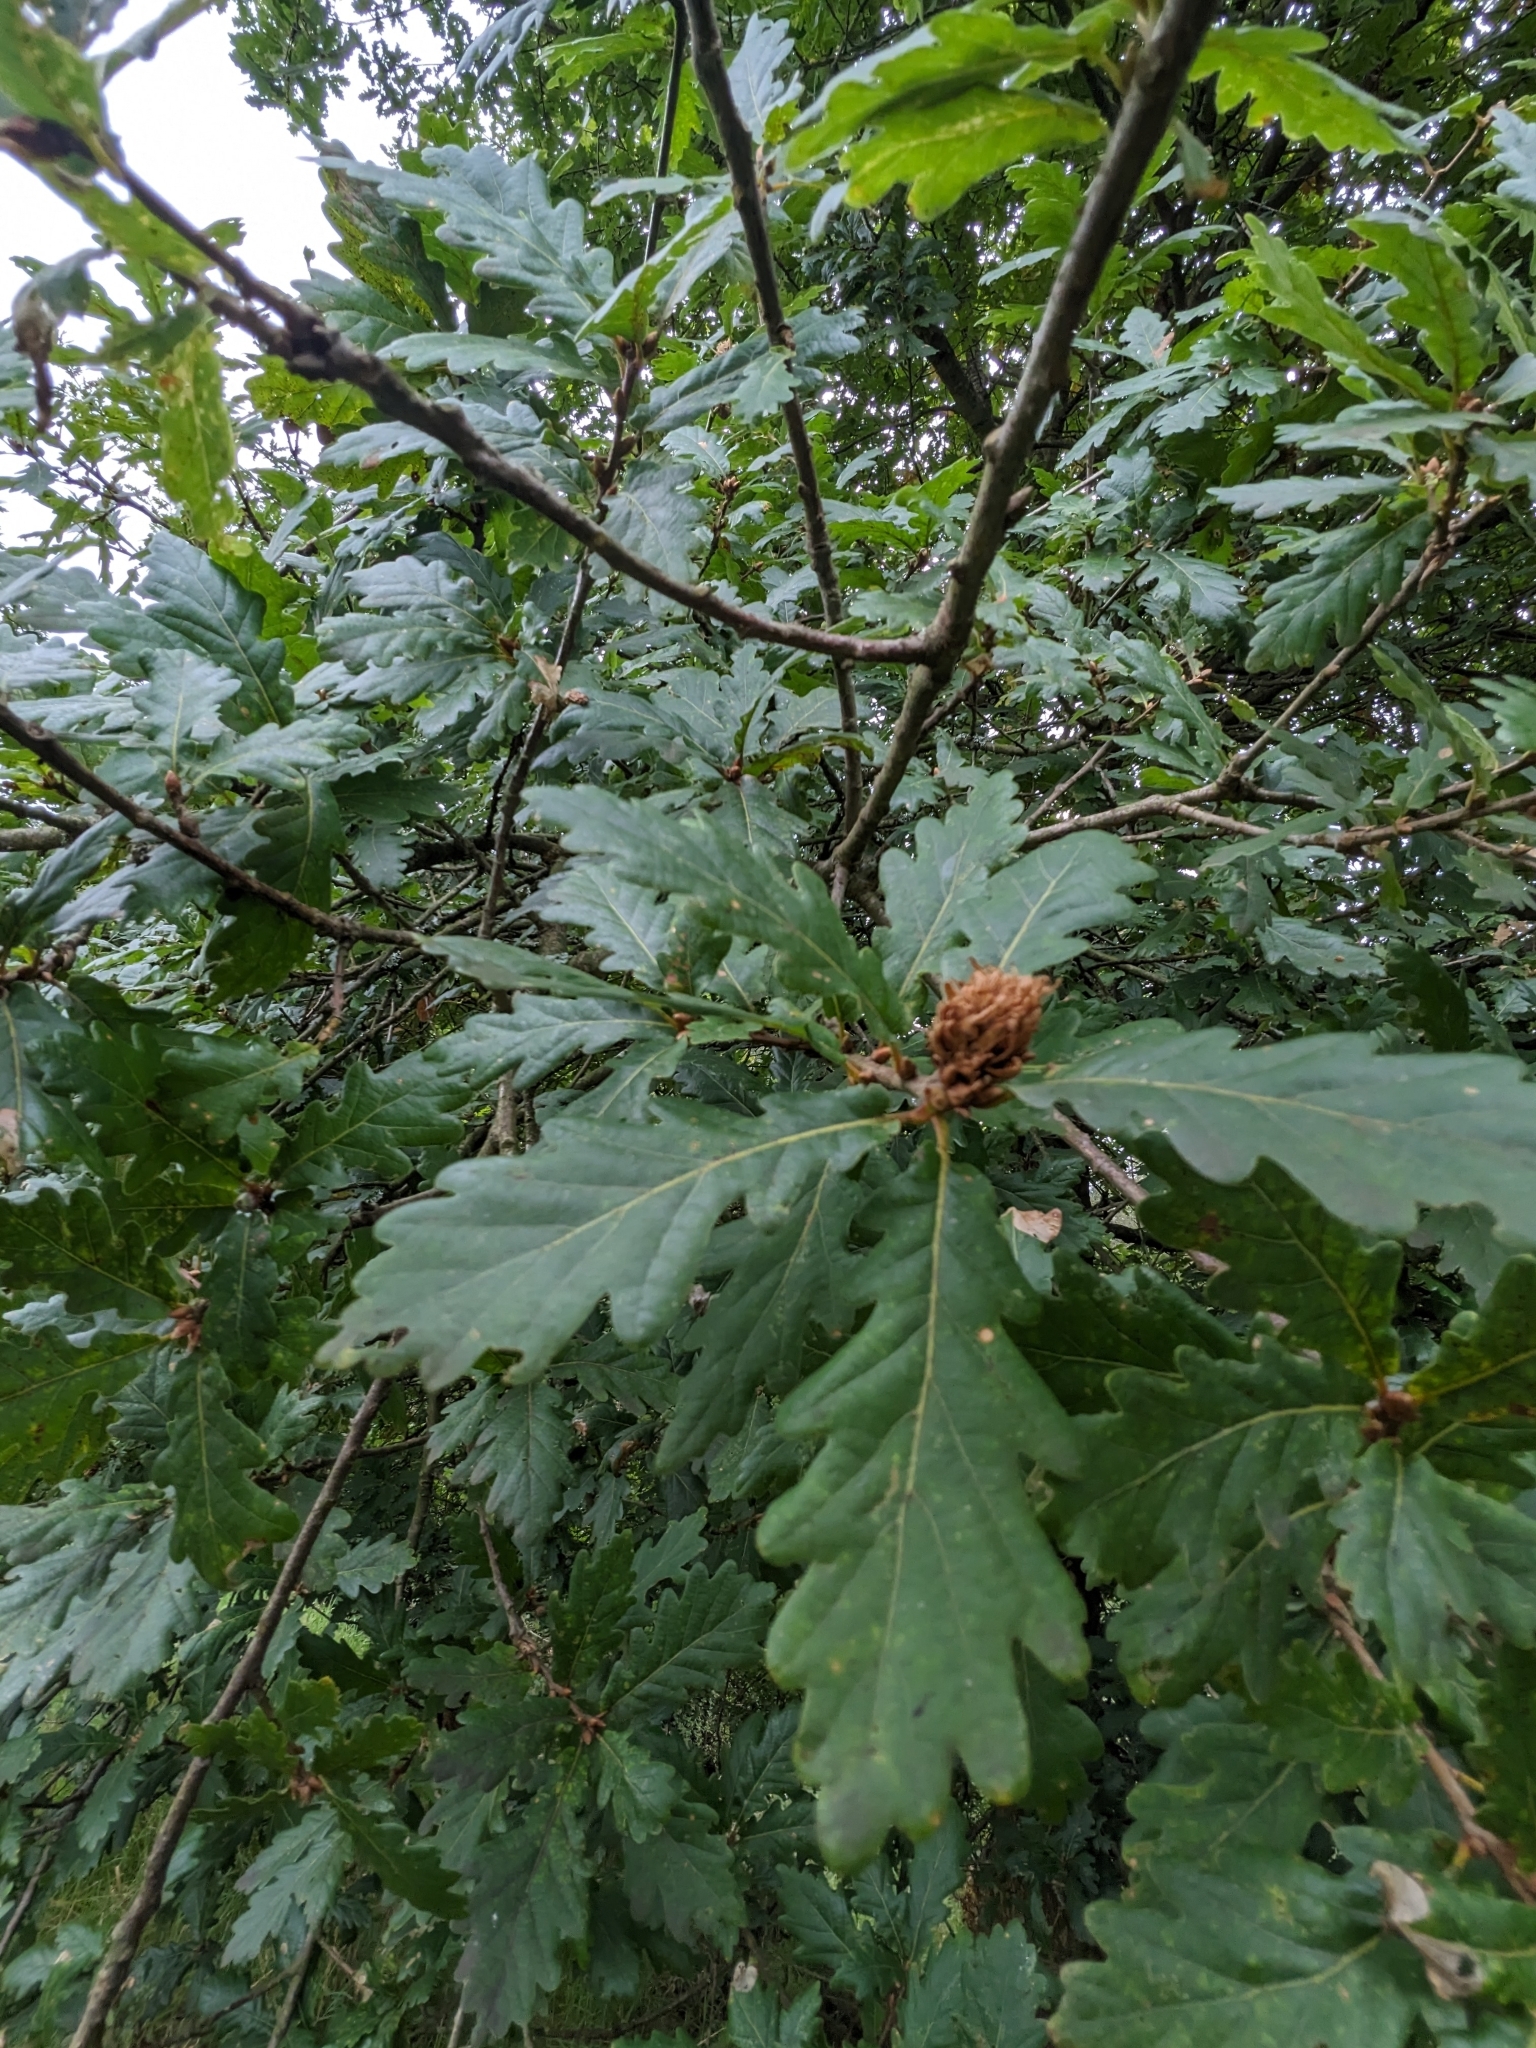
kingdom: Animalia
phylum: Arthropoda
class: Insecta
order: Hymenoptera
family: Cynipidae
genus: Andricus
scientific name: Andricus foecundatrix
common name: Artichoke gall
